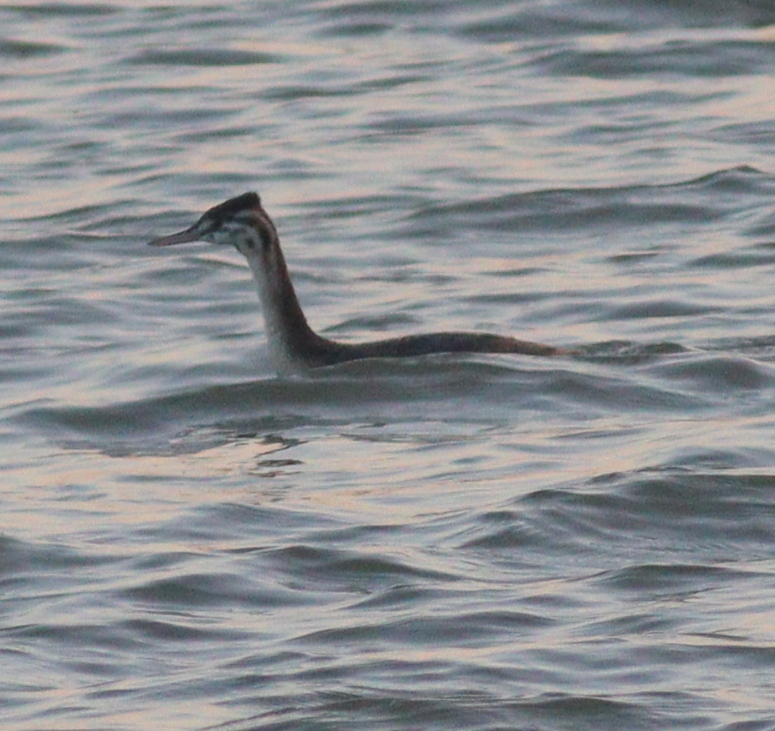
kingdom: Animalia
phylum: Chordata
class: Aves
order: Podicipediformes
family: Podicipedidae
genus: Podiceps
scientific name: Podiceps cristatus
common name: Great crested grebe
